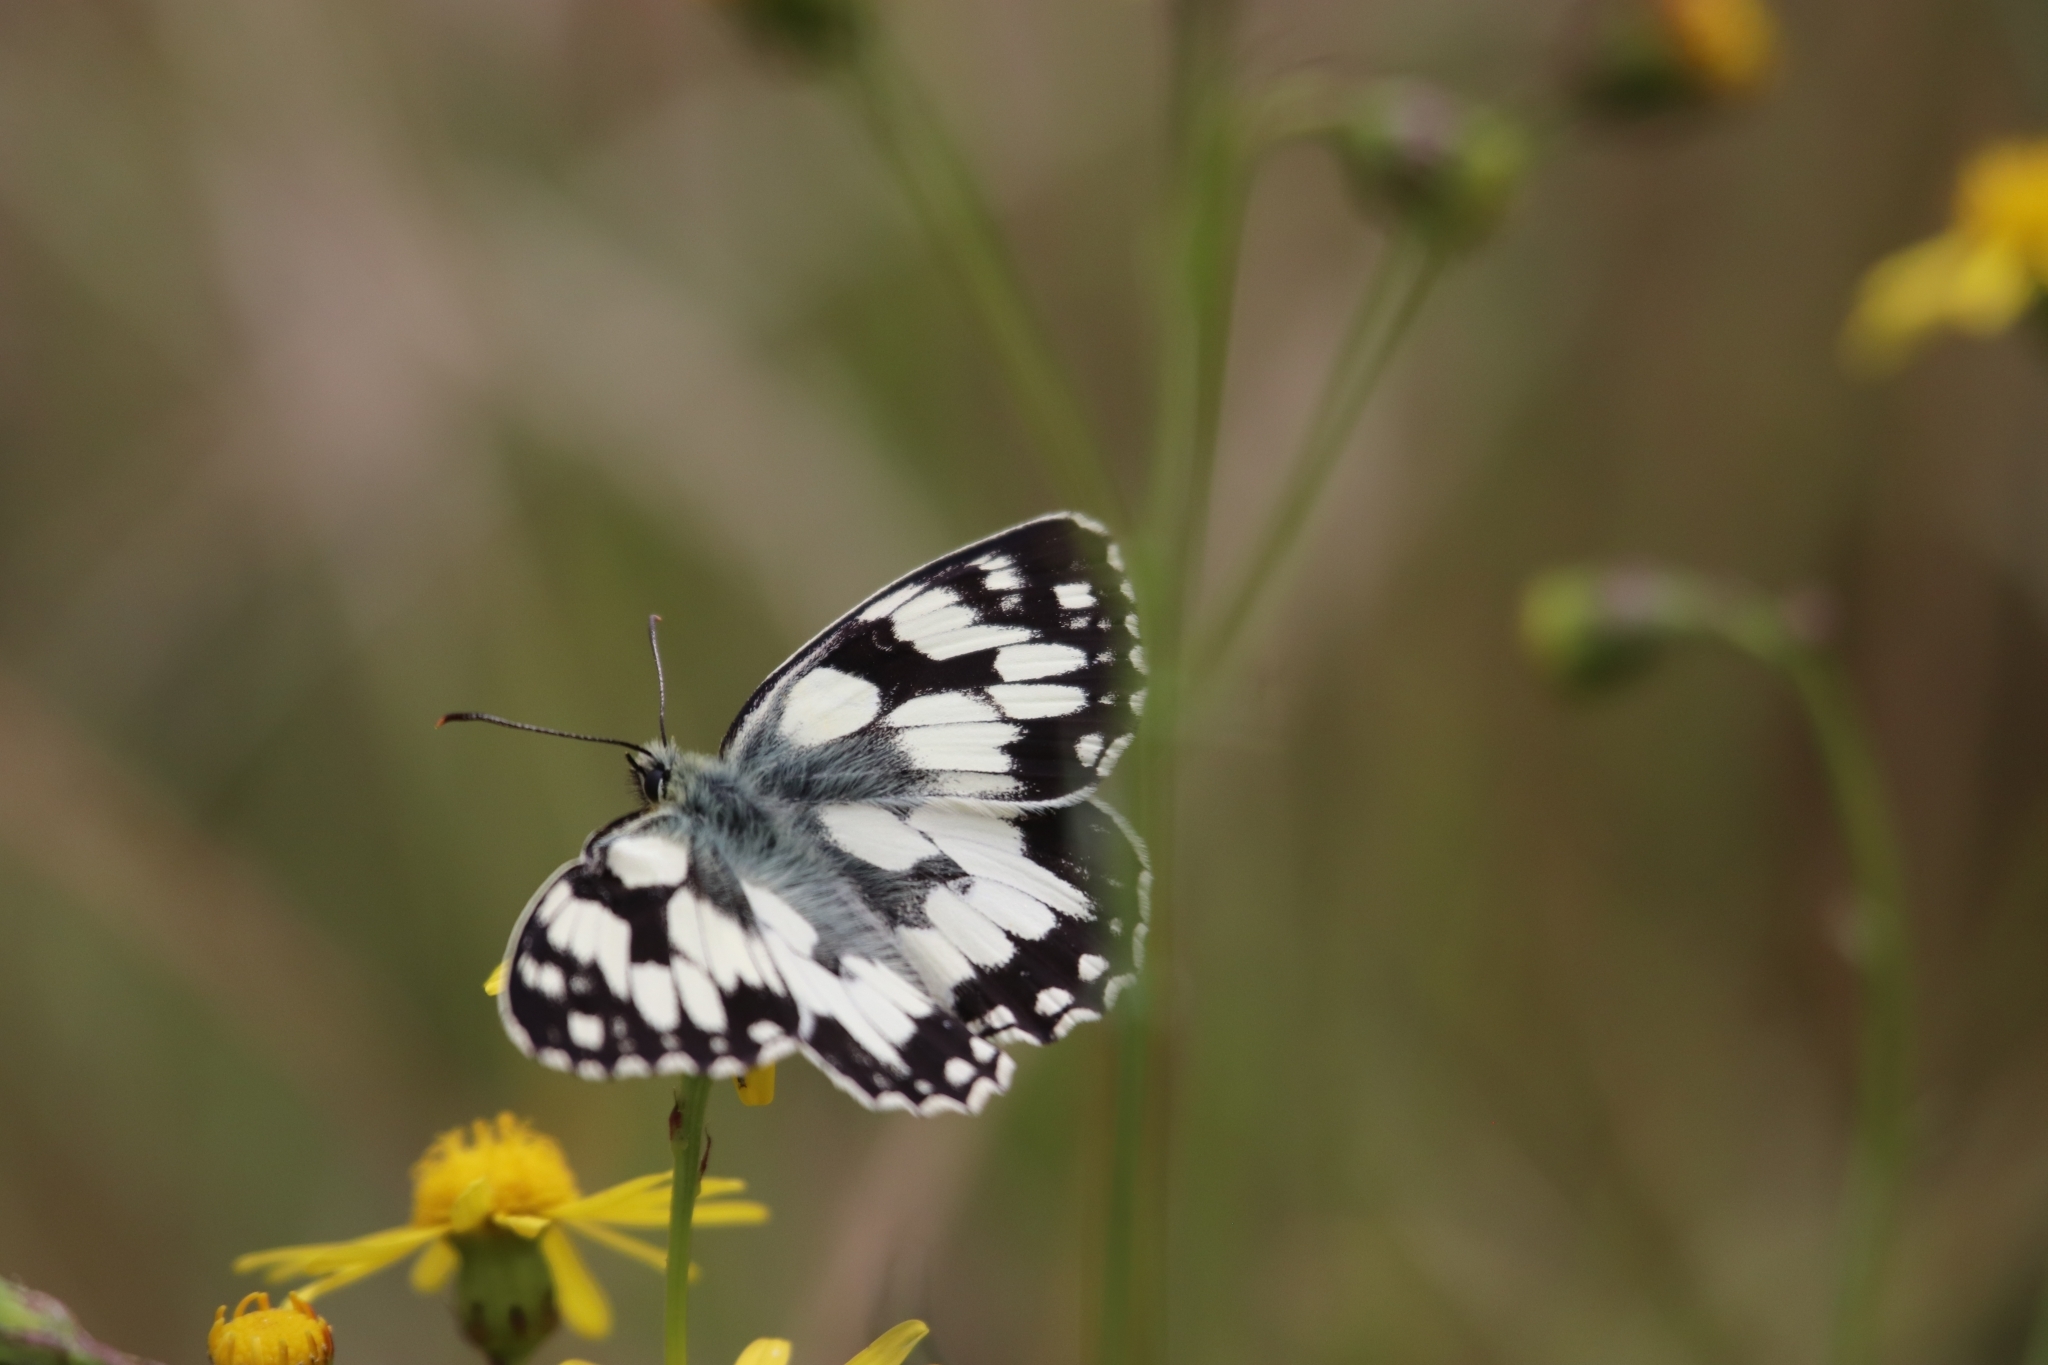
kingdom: Animalia
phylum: Arthropoda
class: Insecta
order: Lepidoptera
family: Nymphalidae
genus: Melanargia
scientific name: Melanargia galathea
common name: Marbled white
